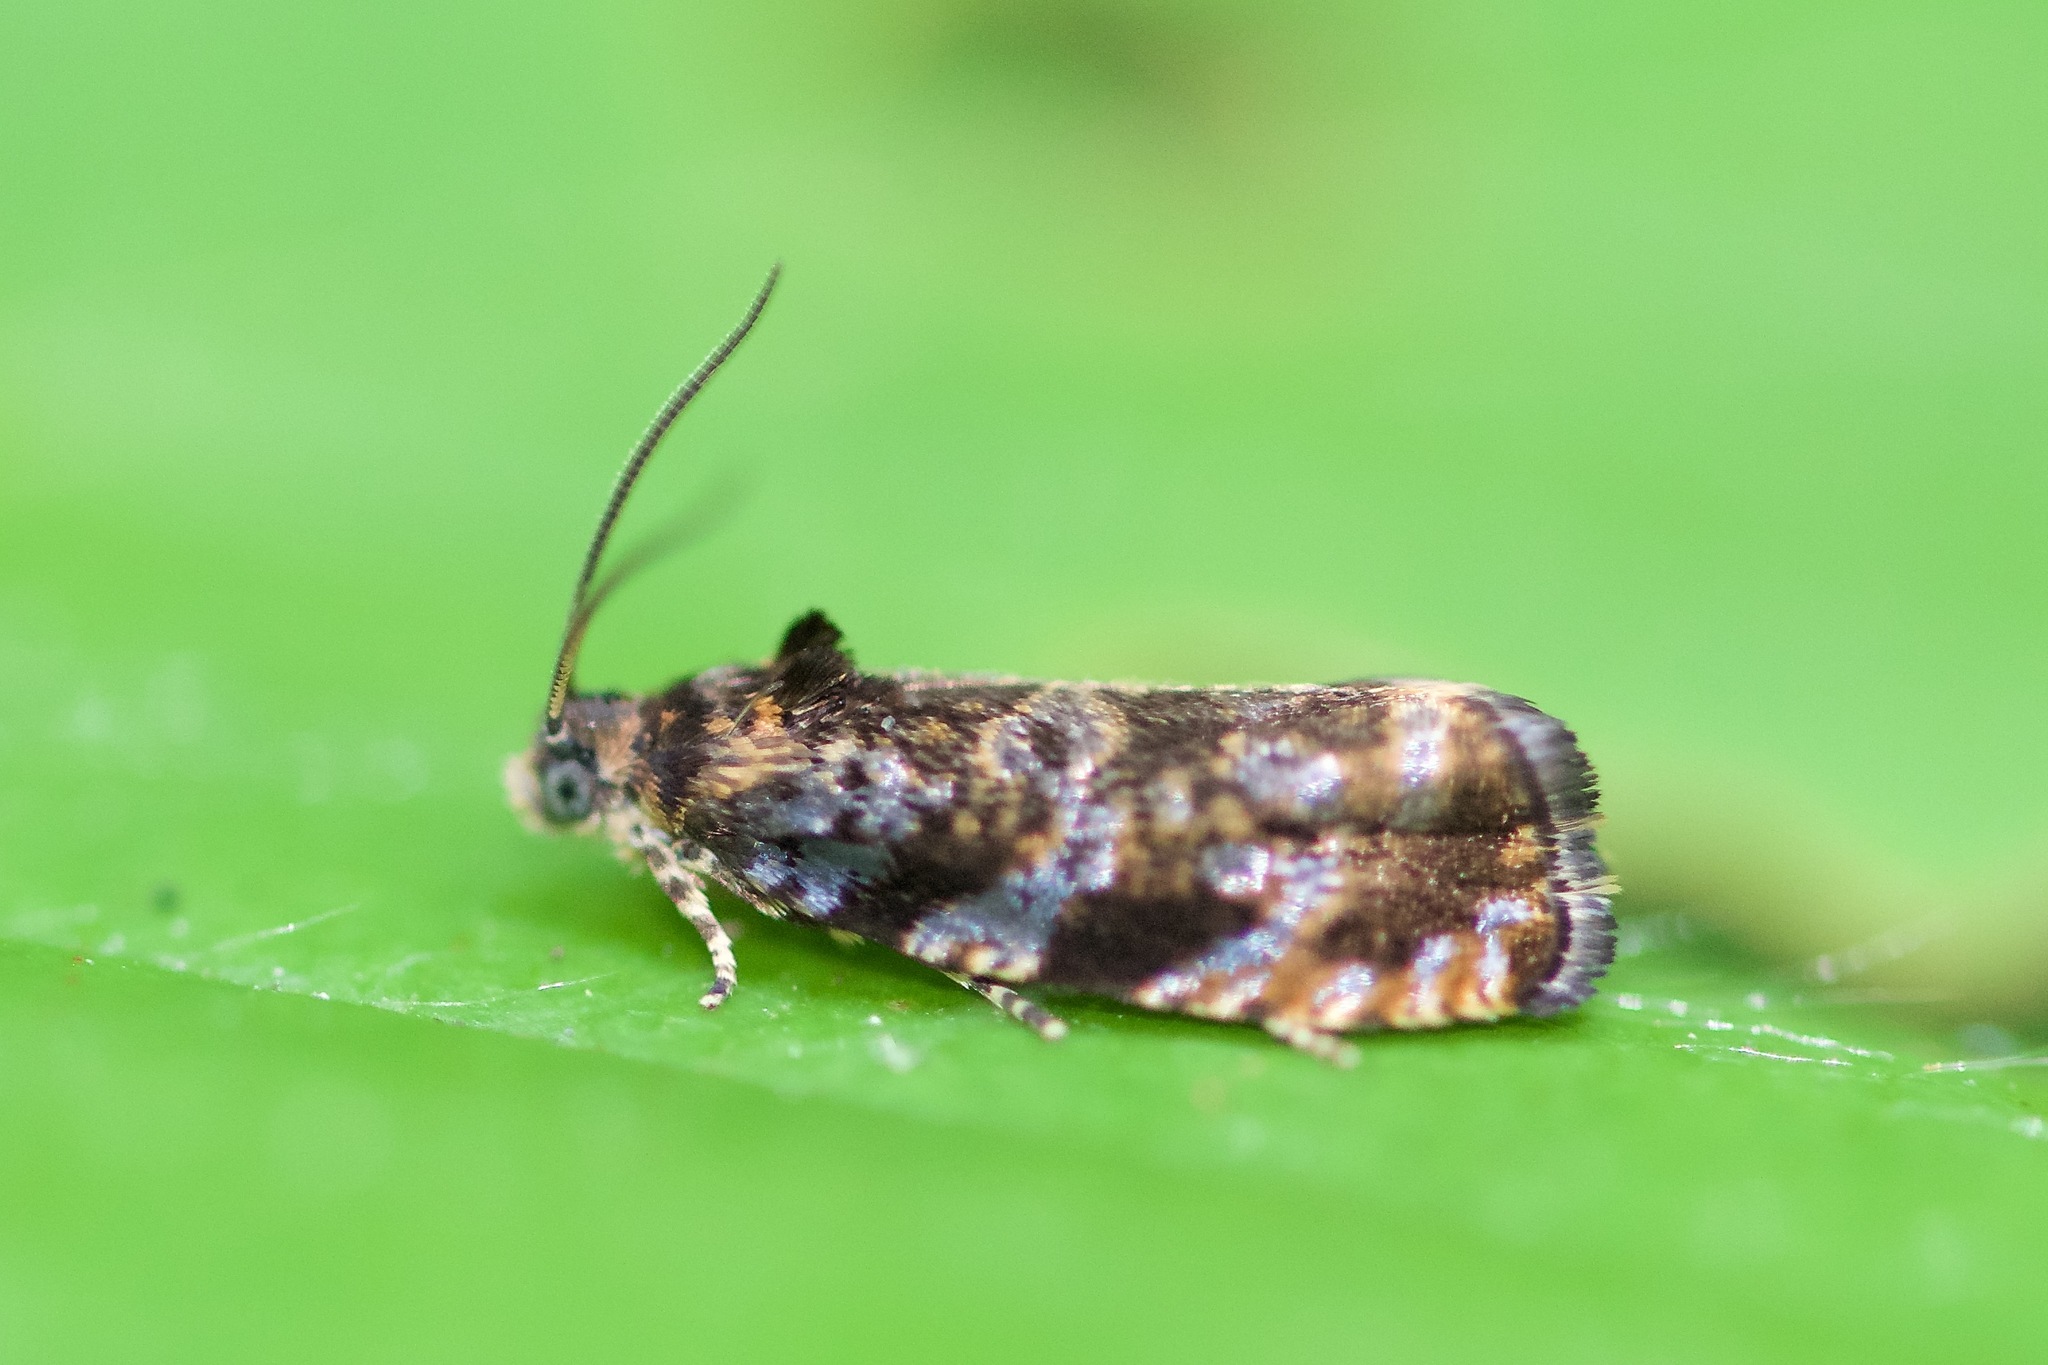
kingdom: Animalia
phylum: Arthropoda
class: Insecta
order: Lepidoptera
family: Tortricidae
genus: Pristerognatha
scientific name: Pristerognatha agilana
